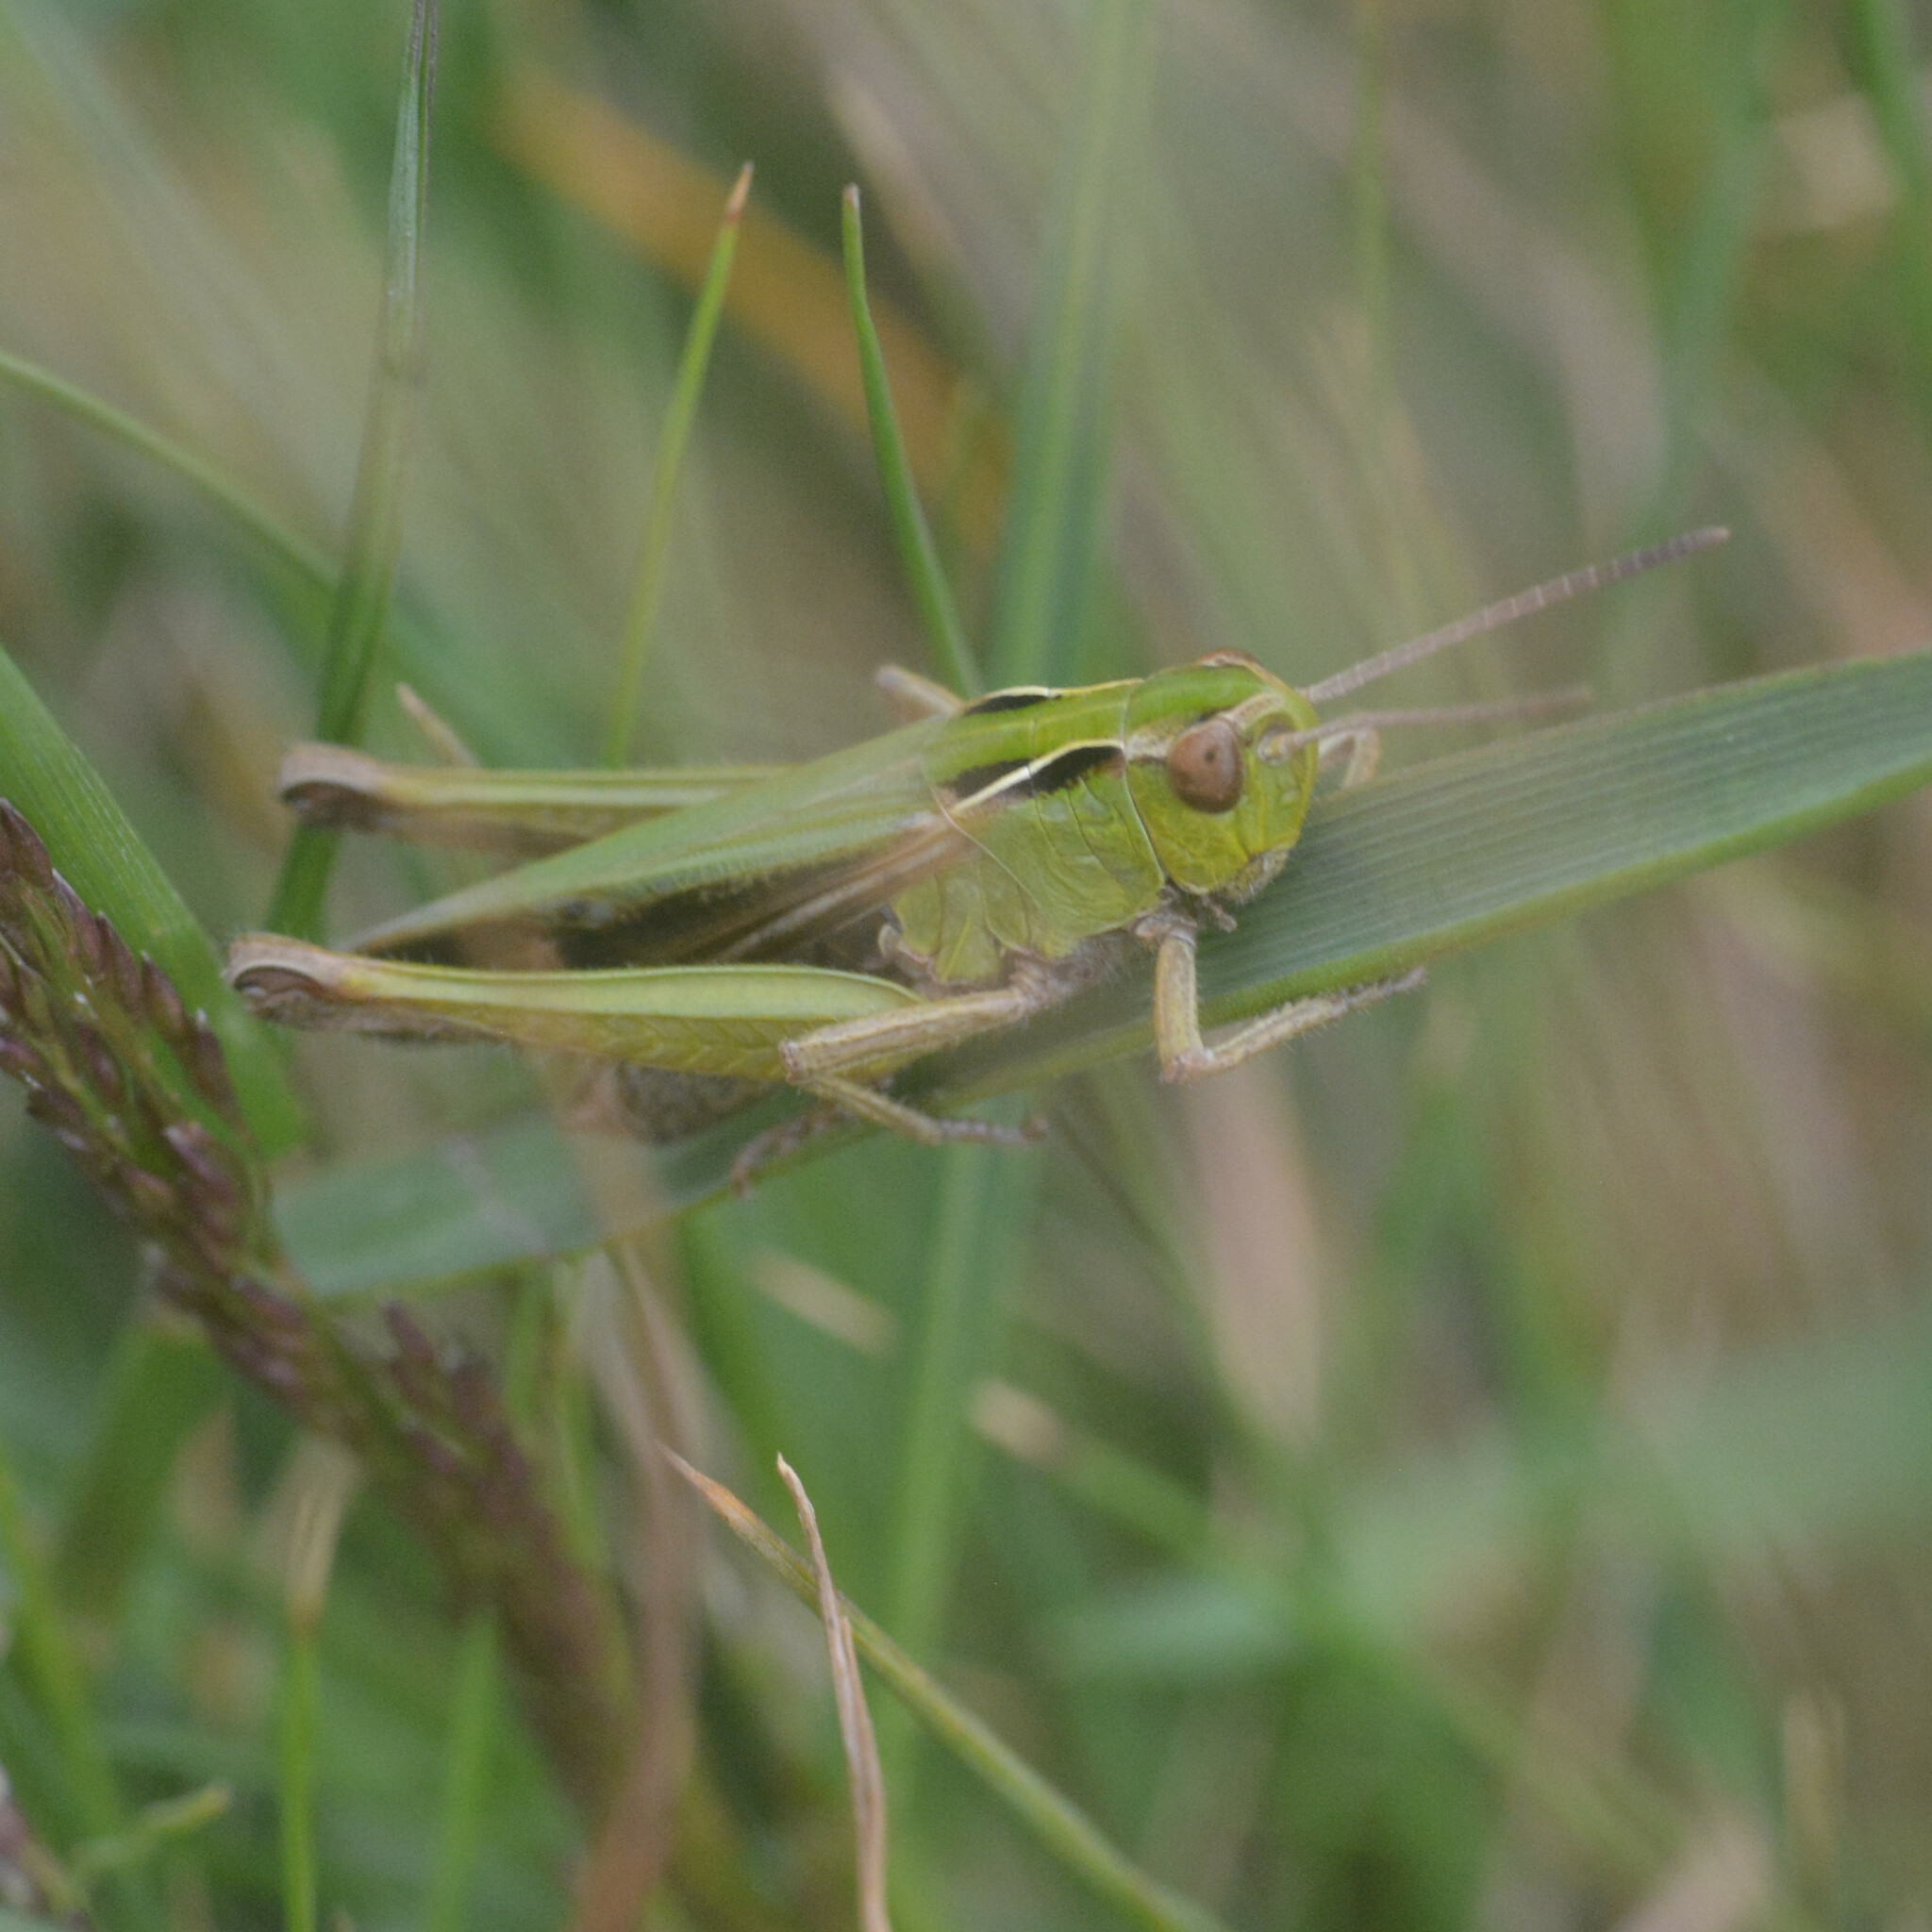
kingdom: Animalia
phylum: Arthropoda
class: Insecta
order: Orthoptera
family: Acrididae
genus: Omocestus
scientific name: Omocestus viridulus
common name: Common green grasshopper
